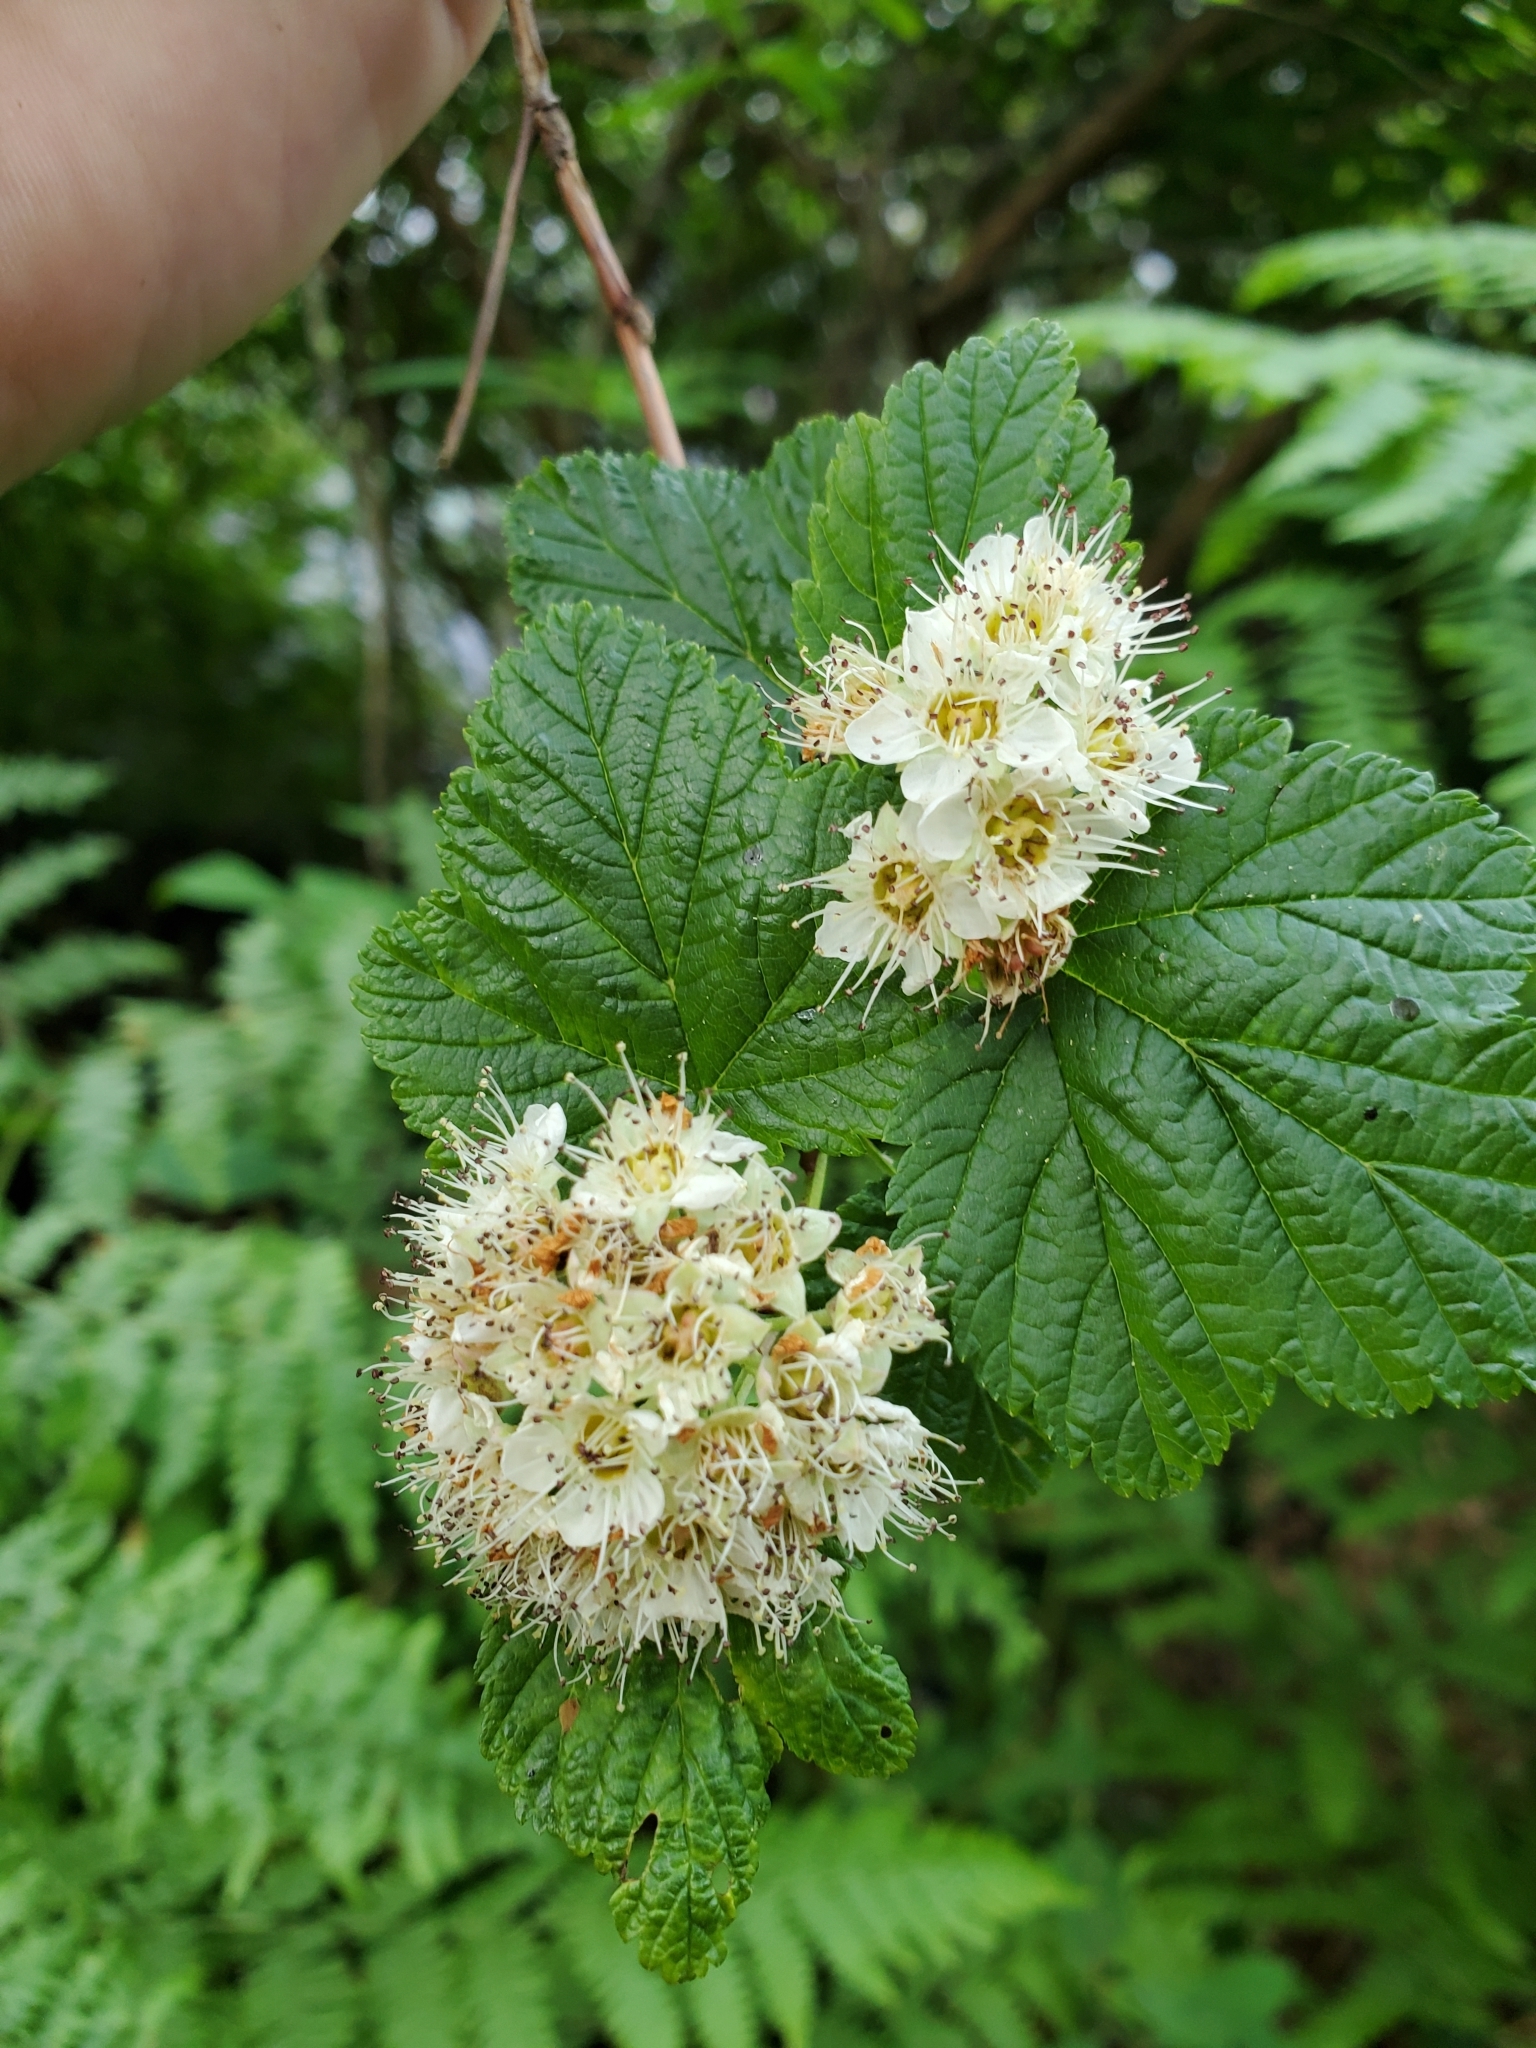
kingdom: Plantae
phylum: Tracheophyta
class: Magnoliopsida
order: Rosales
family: Rosaceae
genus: Physocarpus
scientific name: Physocarpus capitatus
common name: Pacific ninebark
